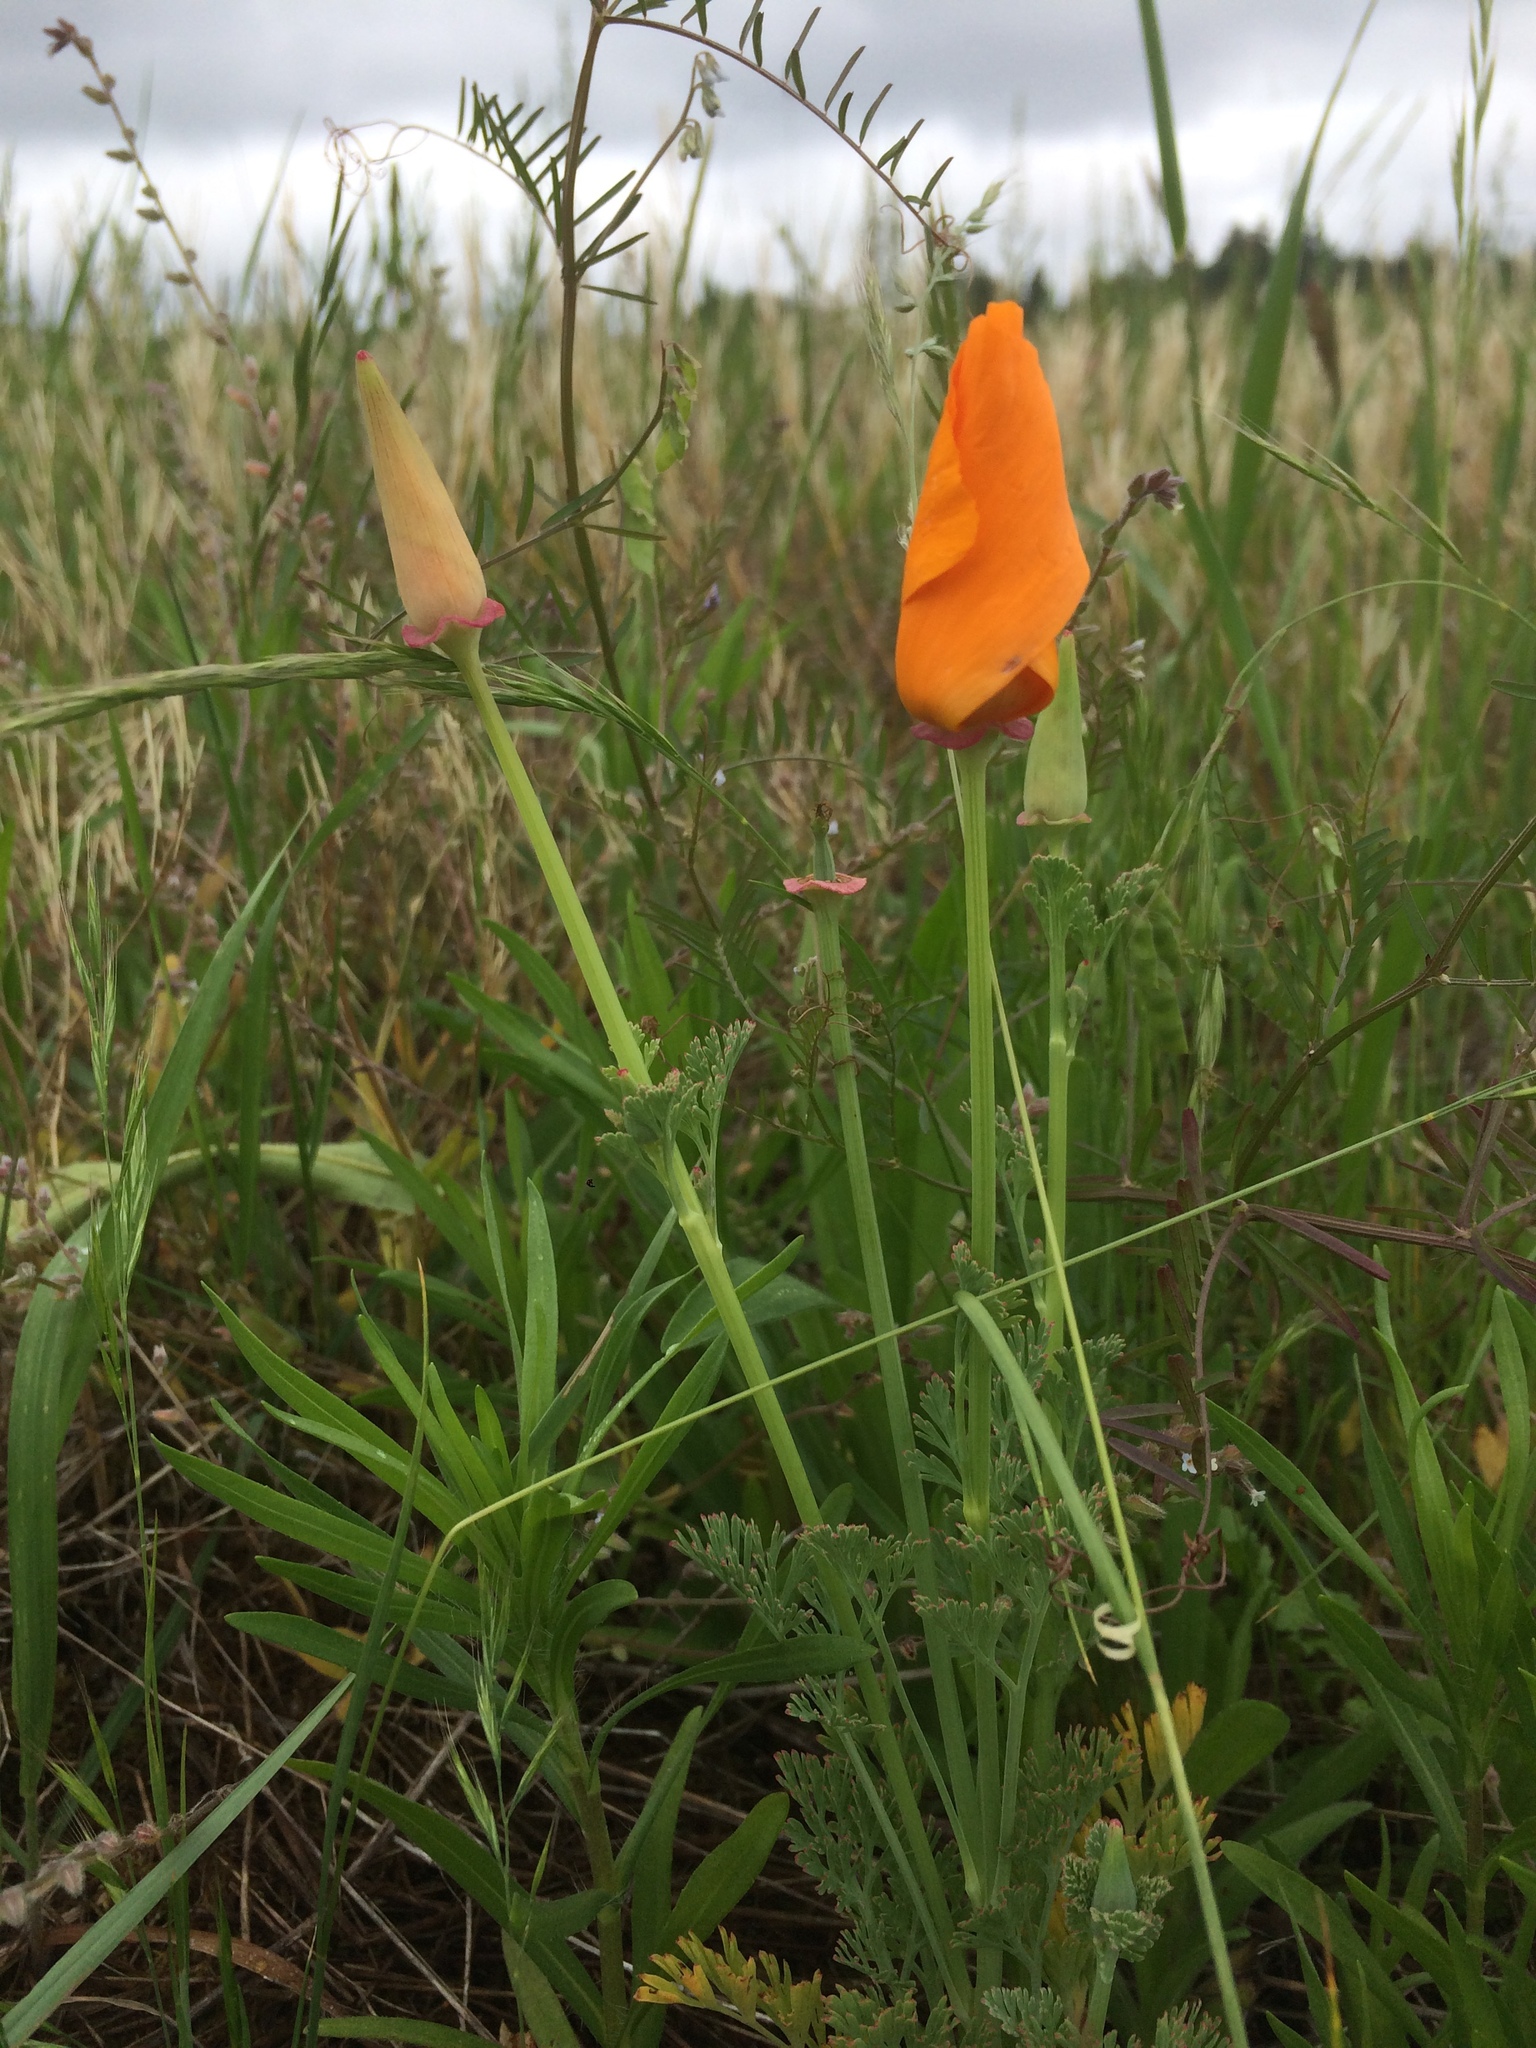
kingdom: Plantae
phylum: Tracheophyta
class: Magnoliopsida
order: Ranunculales
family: Papaveraceae
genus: Eschscholzia
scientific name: Eschscholzia californica
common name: California poppy
